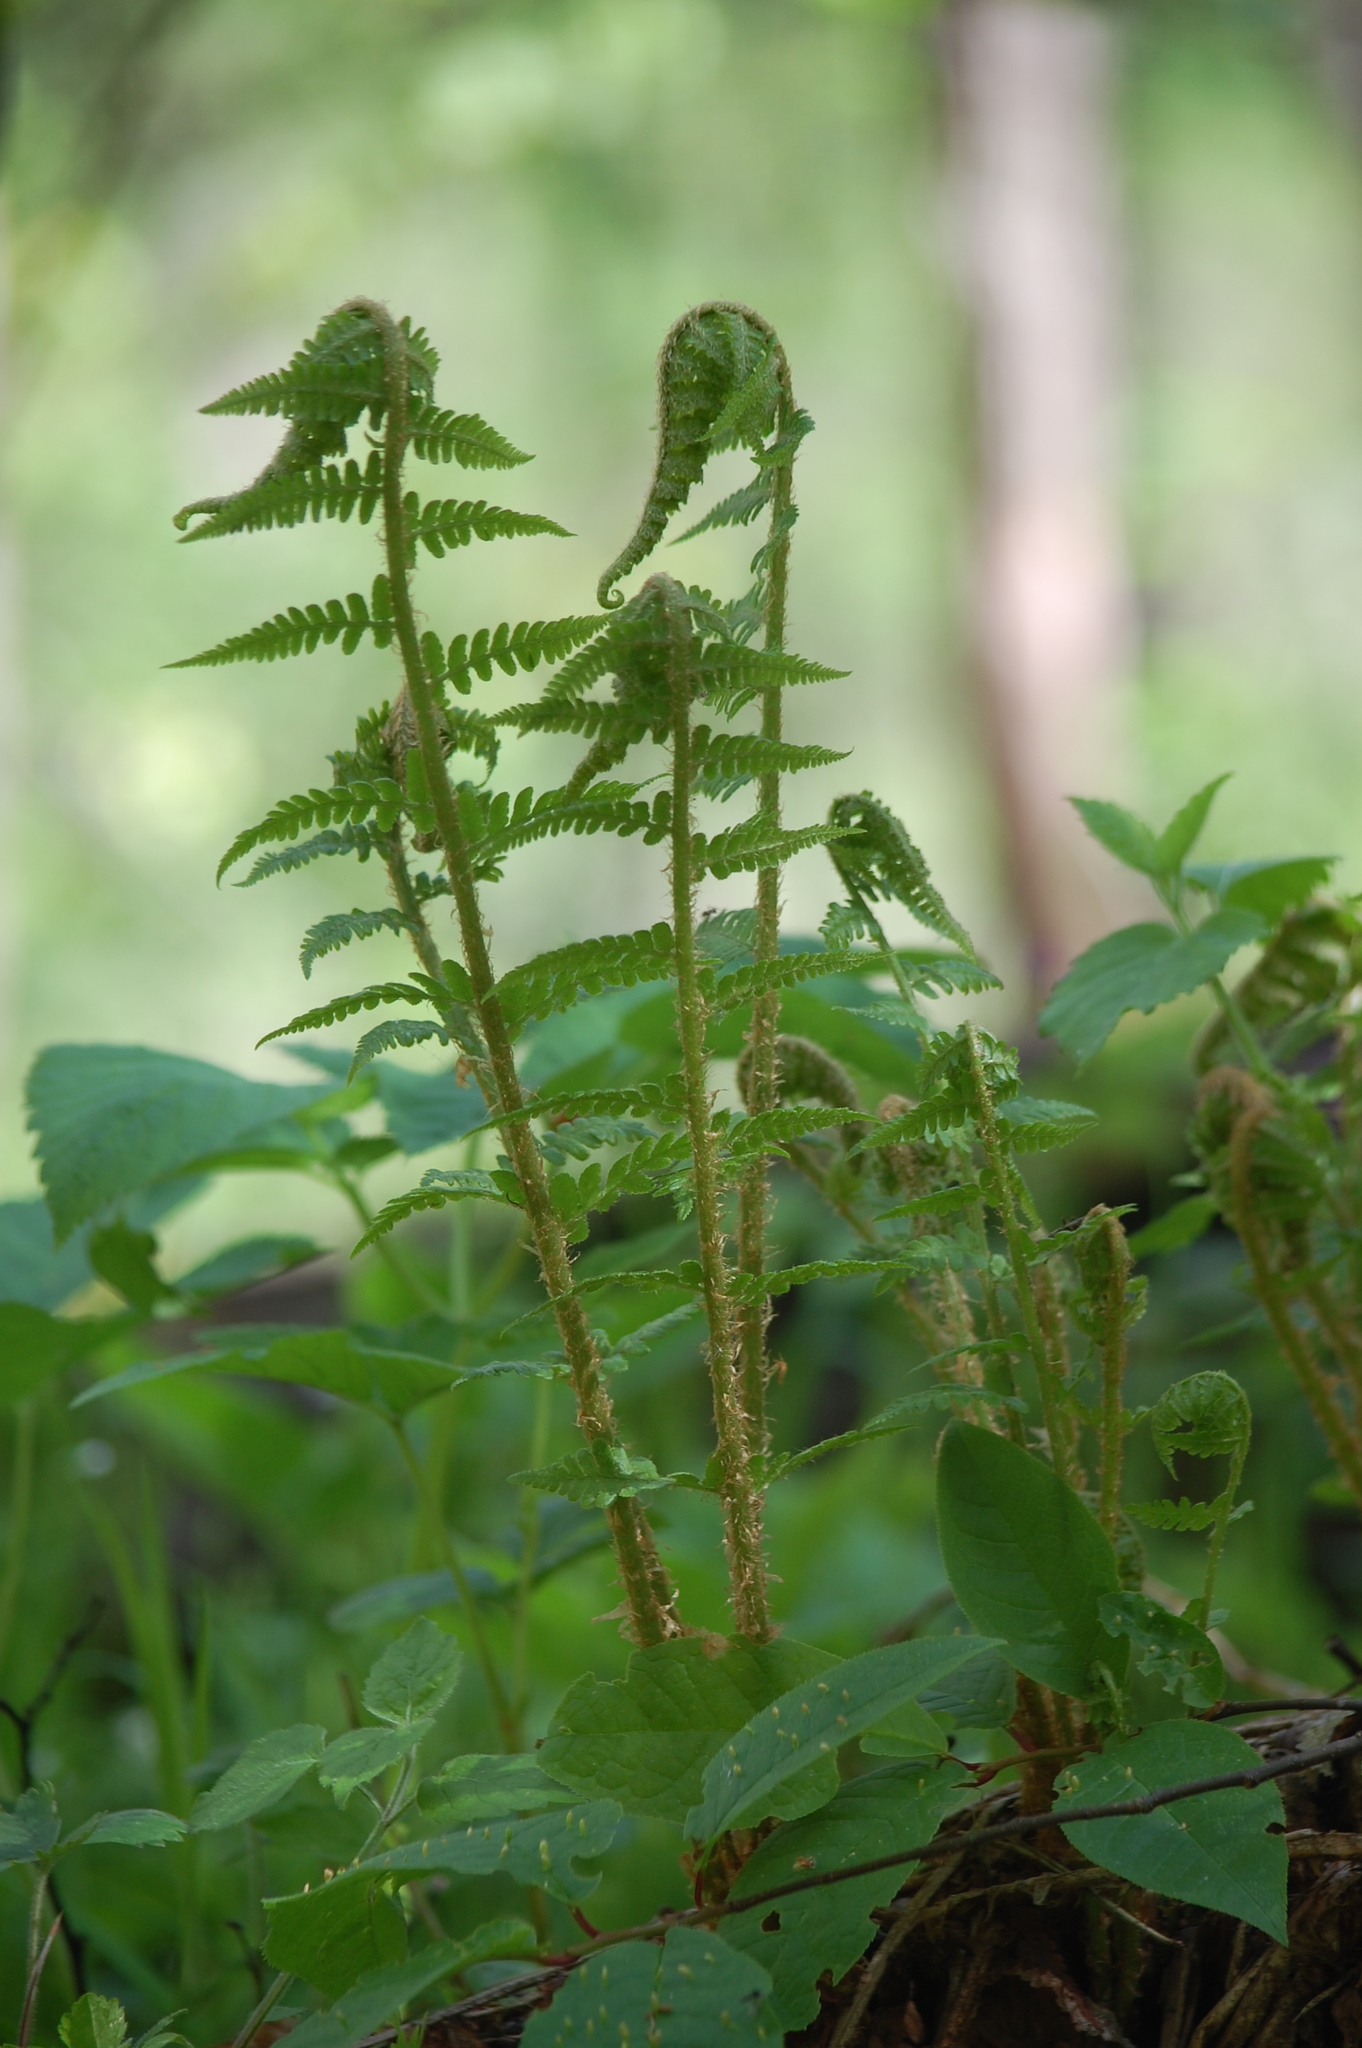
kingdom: Plantae
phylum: Tracheophyta
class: Polypodiopsida
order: Polypodiales
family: Dryopteridaceae
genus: Dryopteris
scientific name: Dryopteris filix-mas
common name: Male fern
